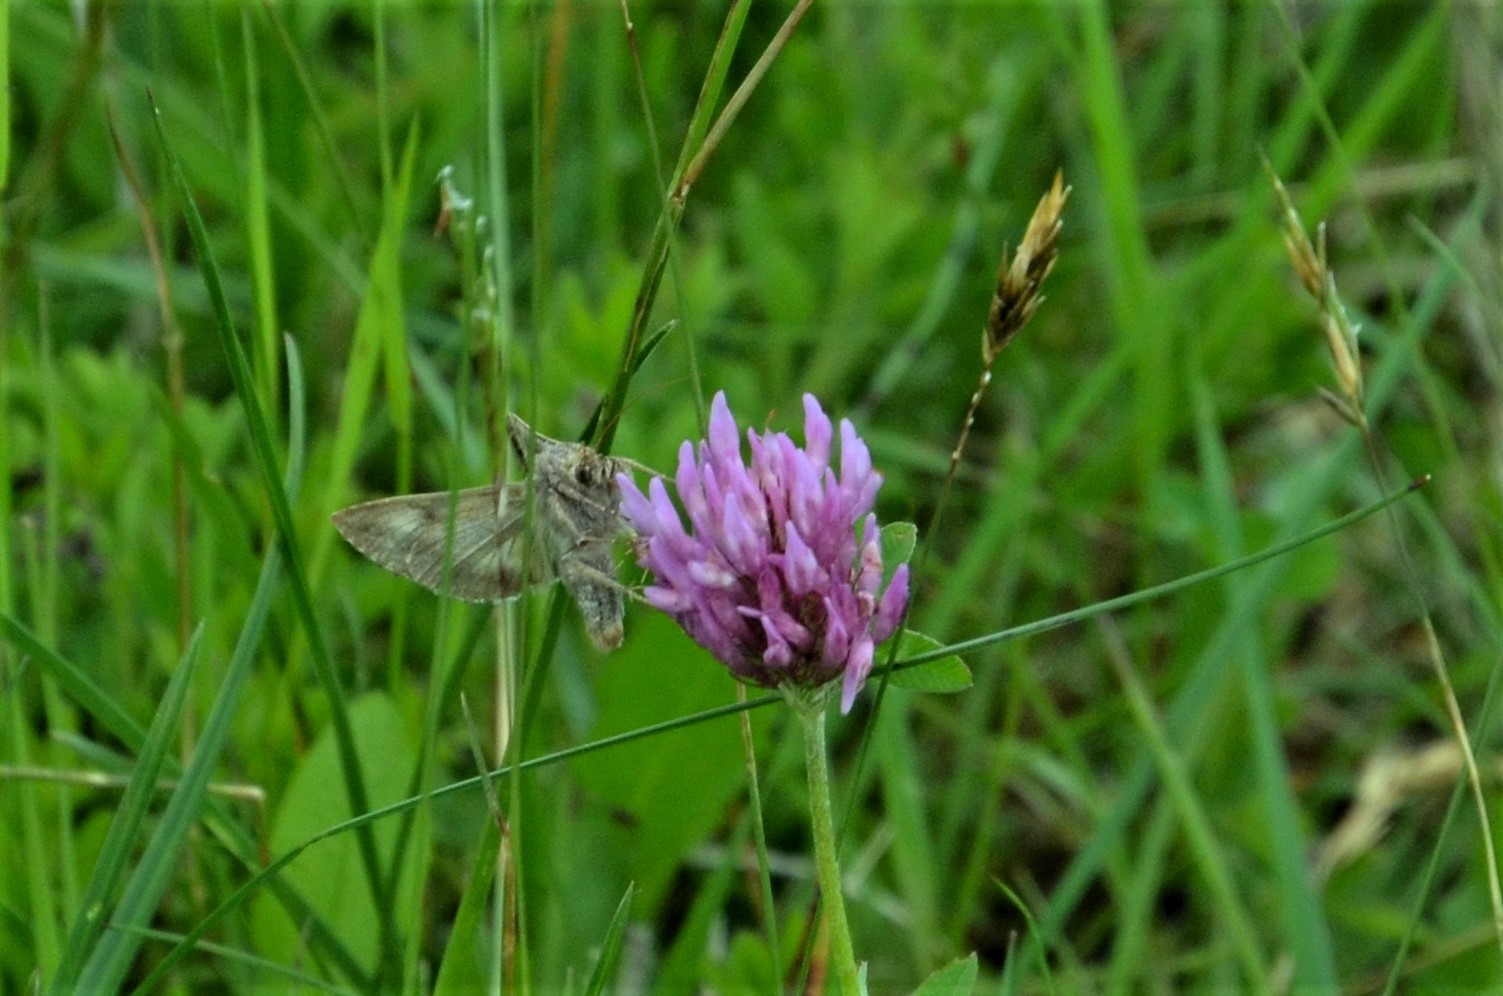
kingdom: Animalia
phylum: Arthropoda
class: Insecta
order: Lepidoptera
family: Noctuidae
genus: Autographa
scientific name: Autographa gamma
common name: Silver y
